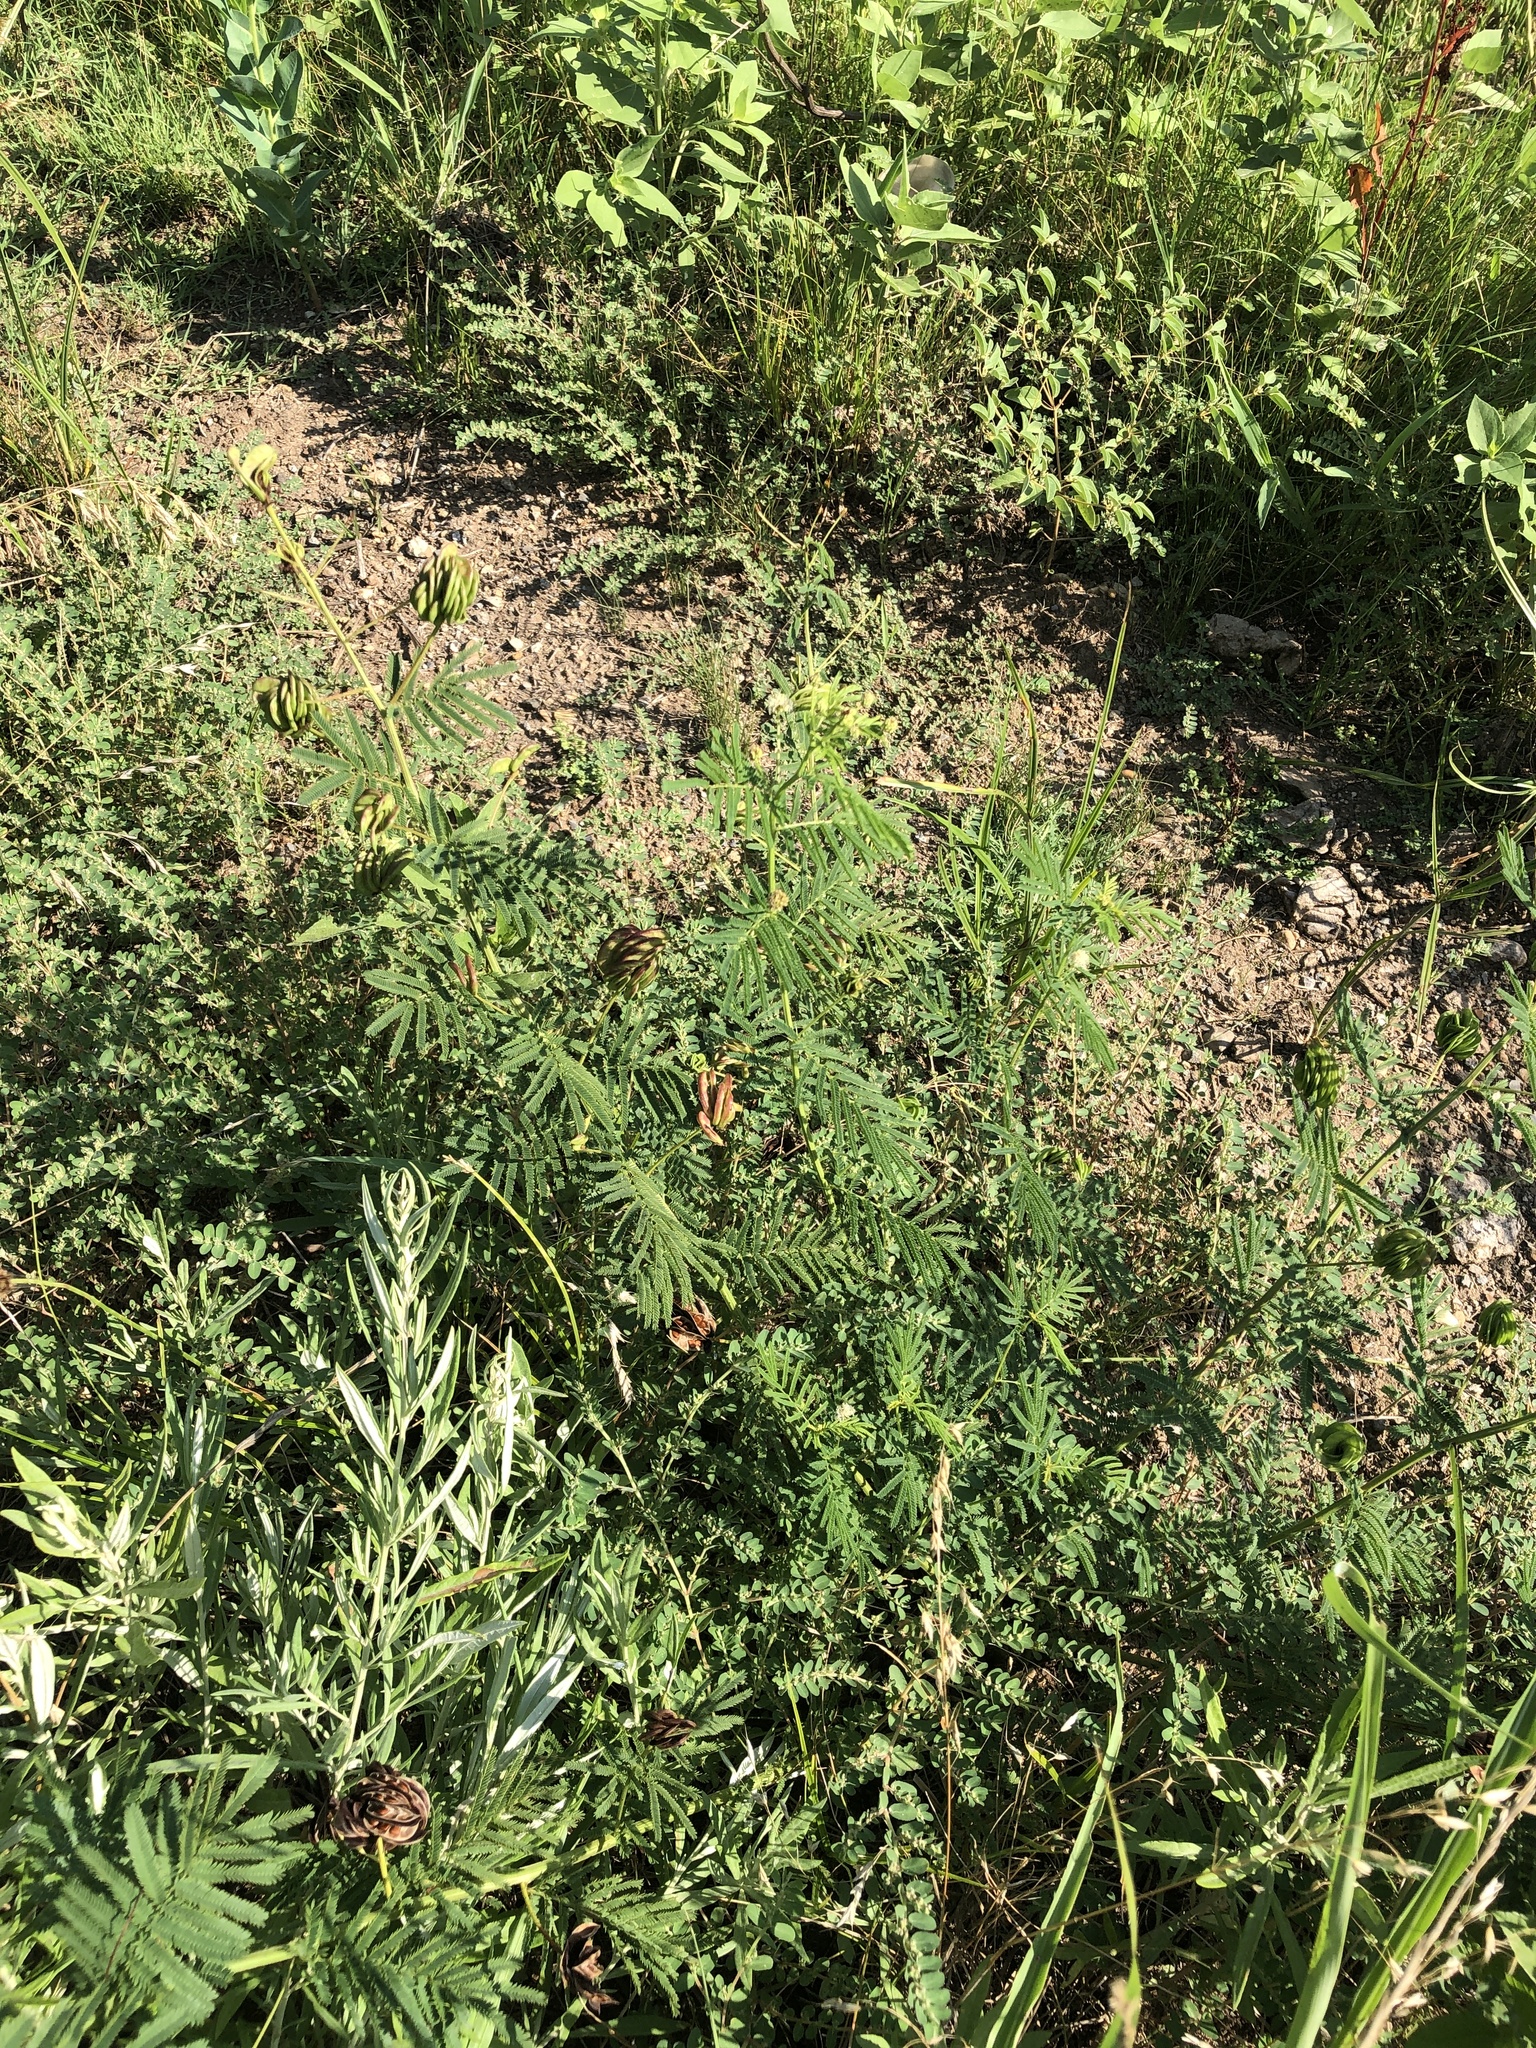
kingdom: Plantae
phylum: Tracheophyta
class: Magnoliopsida
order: Fabales
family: Fabaceae
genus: Desmanthus
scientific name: Desmanthus illinoensis
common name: Illinois bundle-flower
